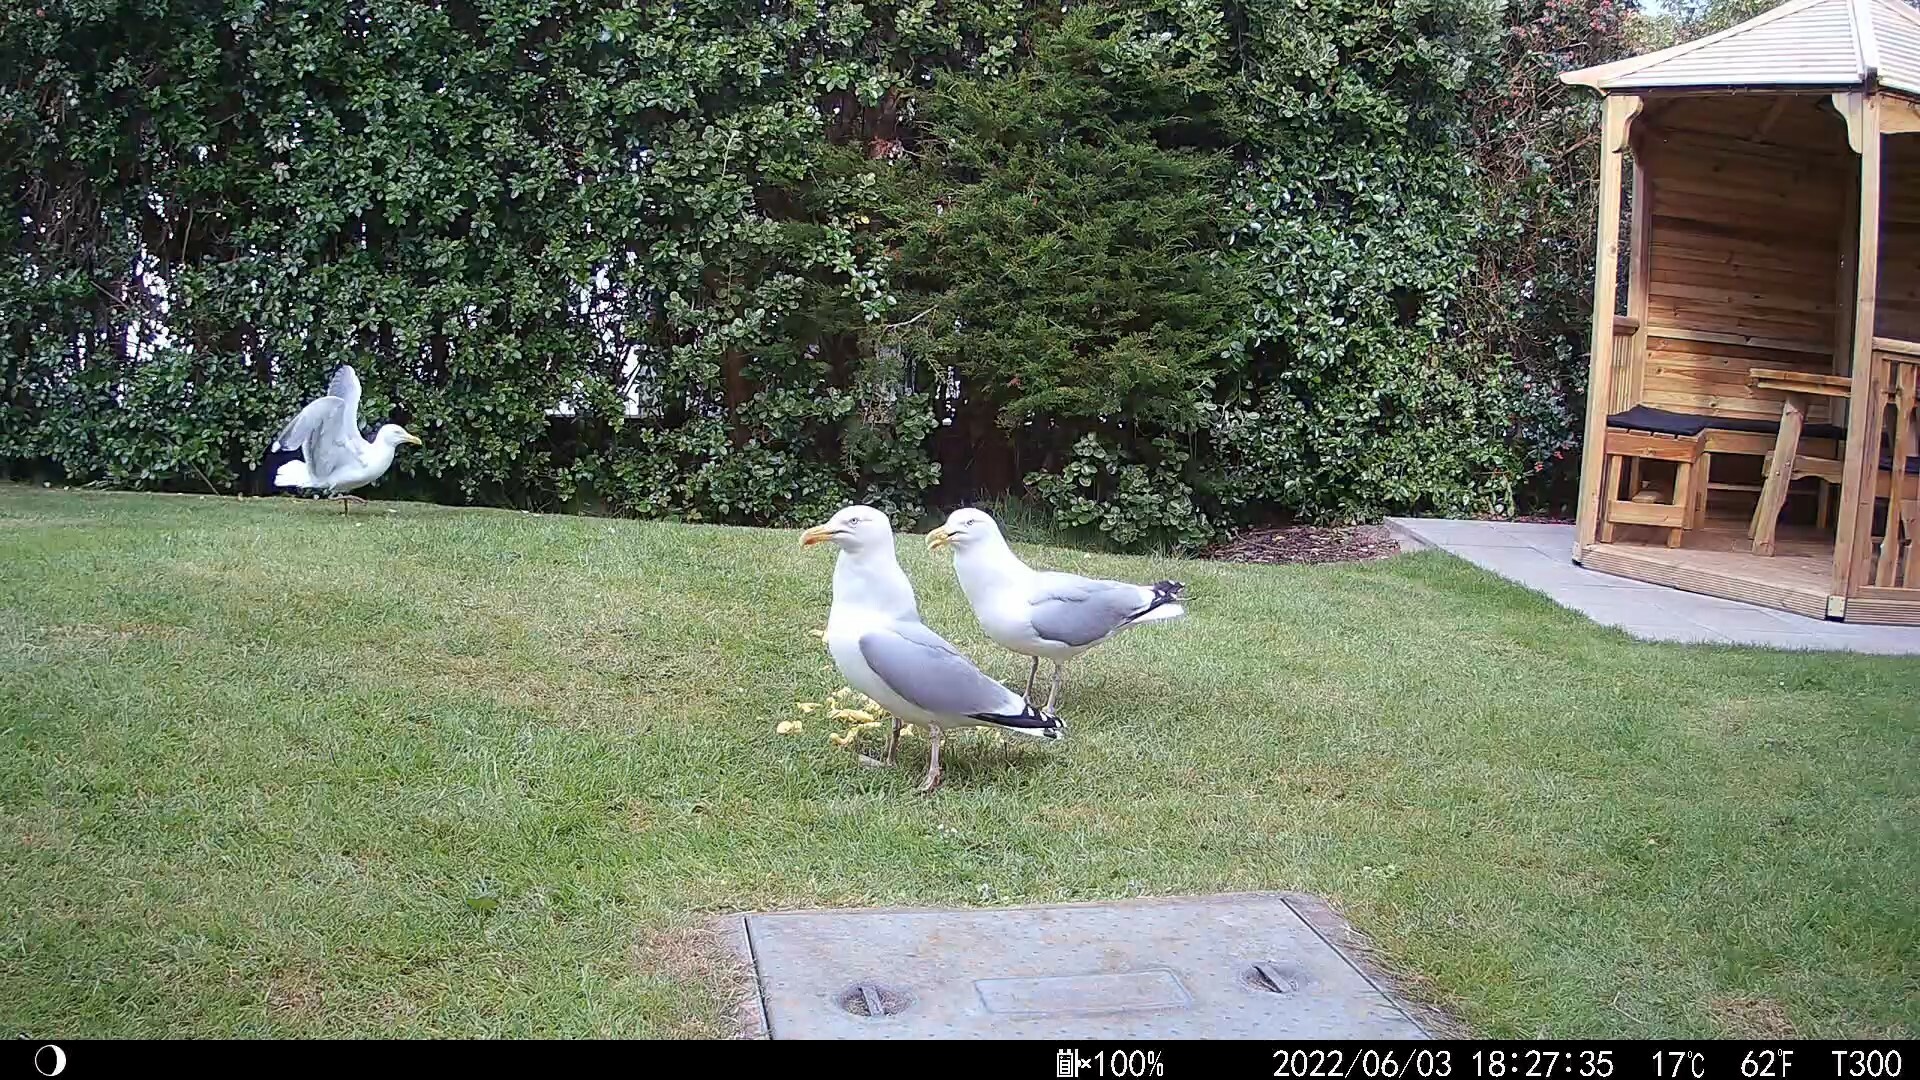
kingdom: Animalia
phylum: Chordata
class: Aves
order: Charadriiformes
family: Laridae
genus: Larus
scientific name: Larus argentatus
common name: Herring gull
